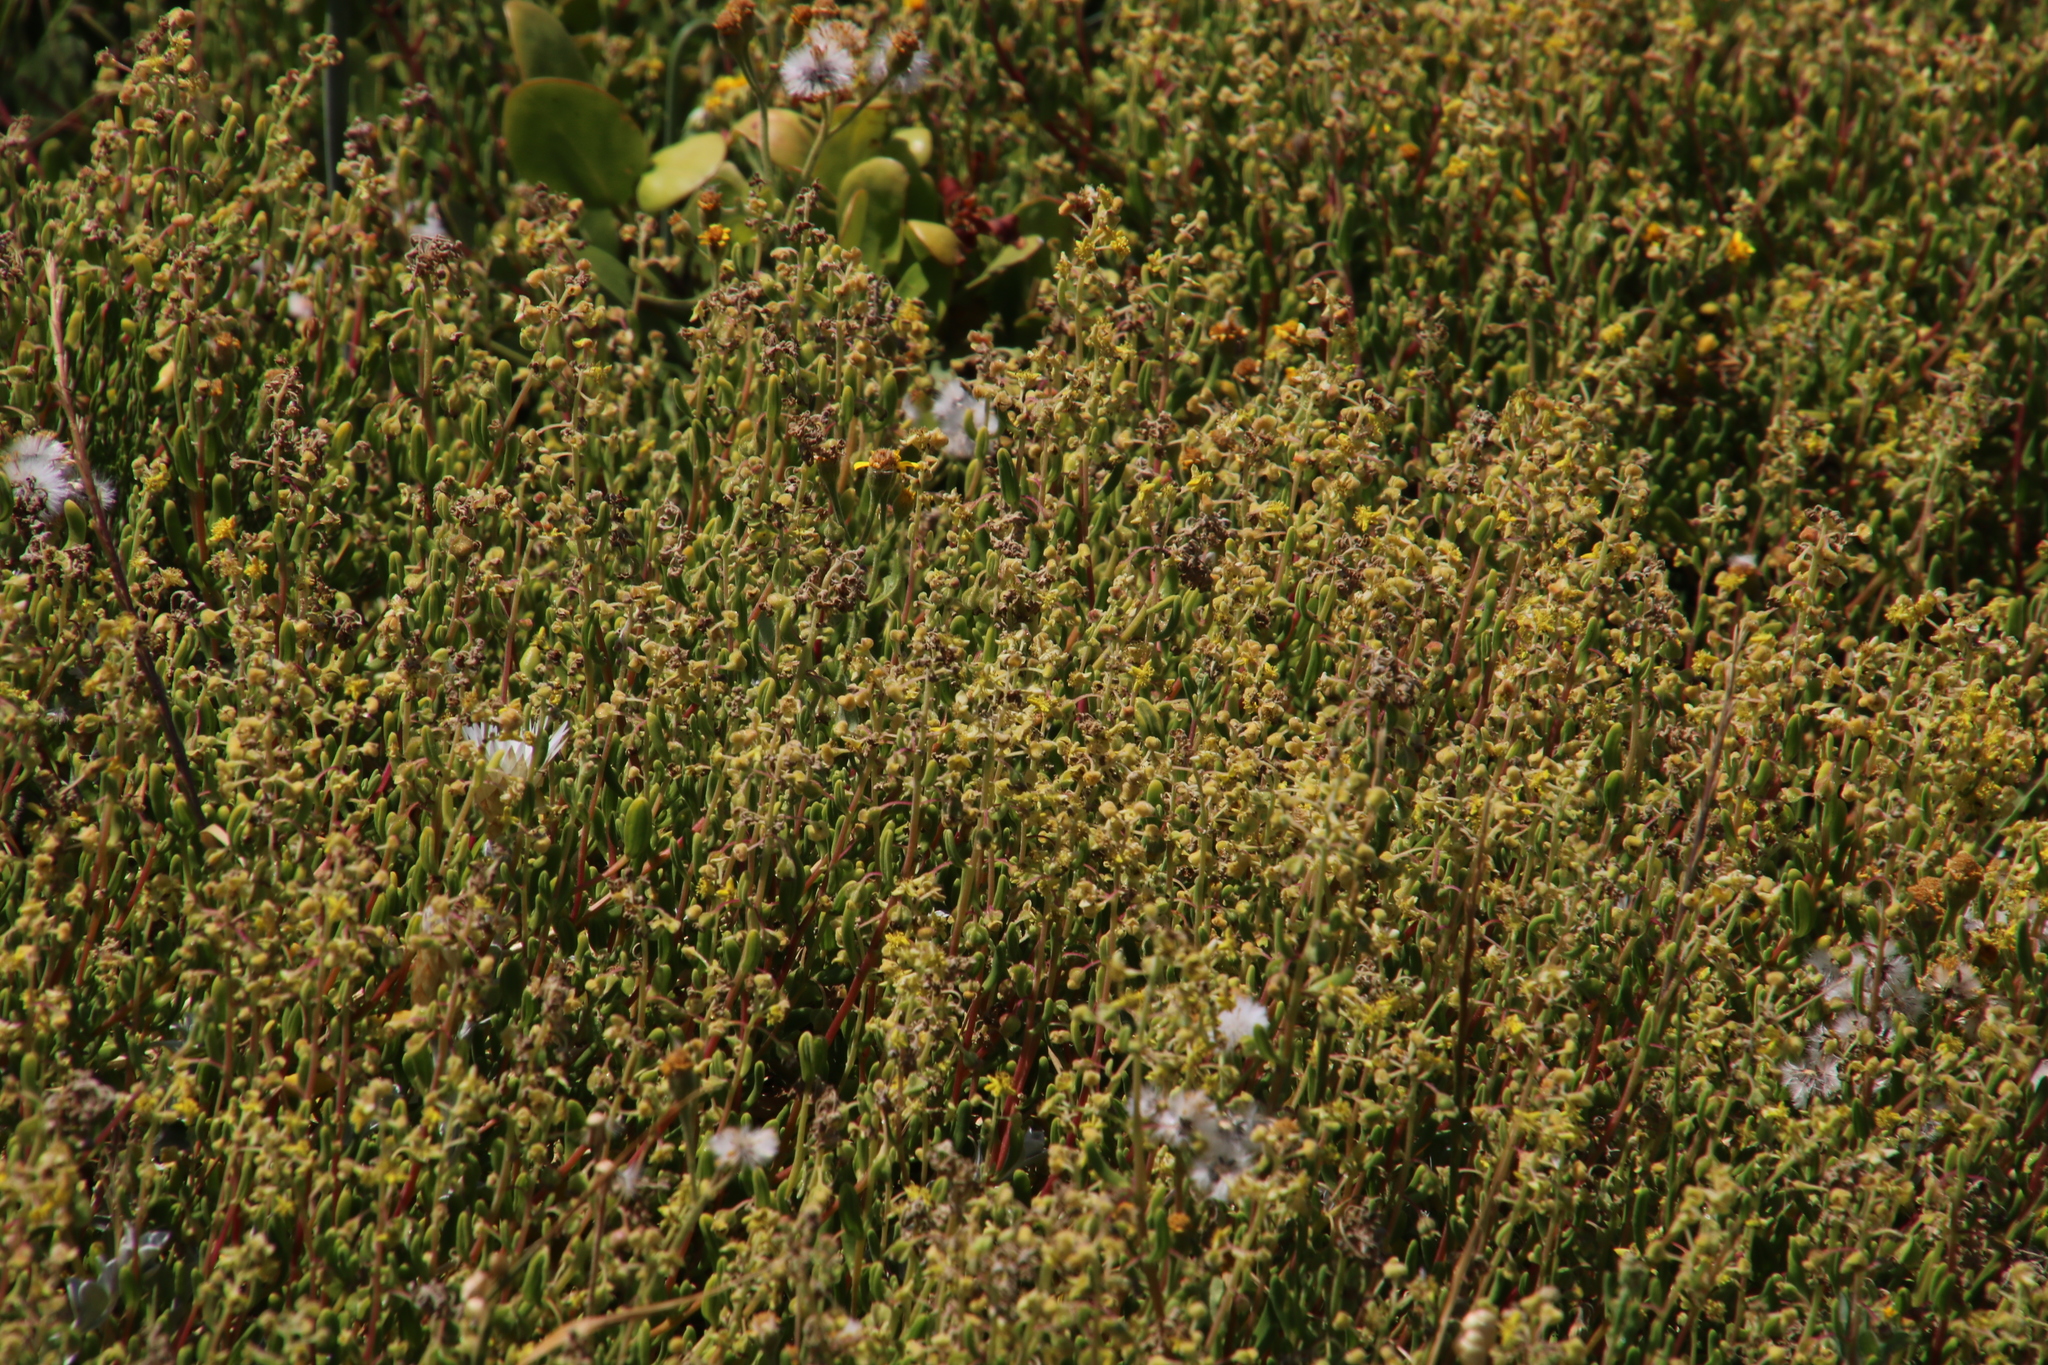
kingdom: Plantae
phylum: Tracheophyta
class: Magnoliopsida
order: Caryophyllales
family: Aizoaceae
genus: Tetragonia
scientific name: Tetragonia fruticosa
